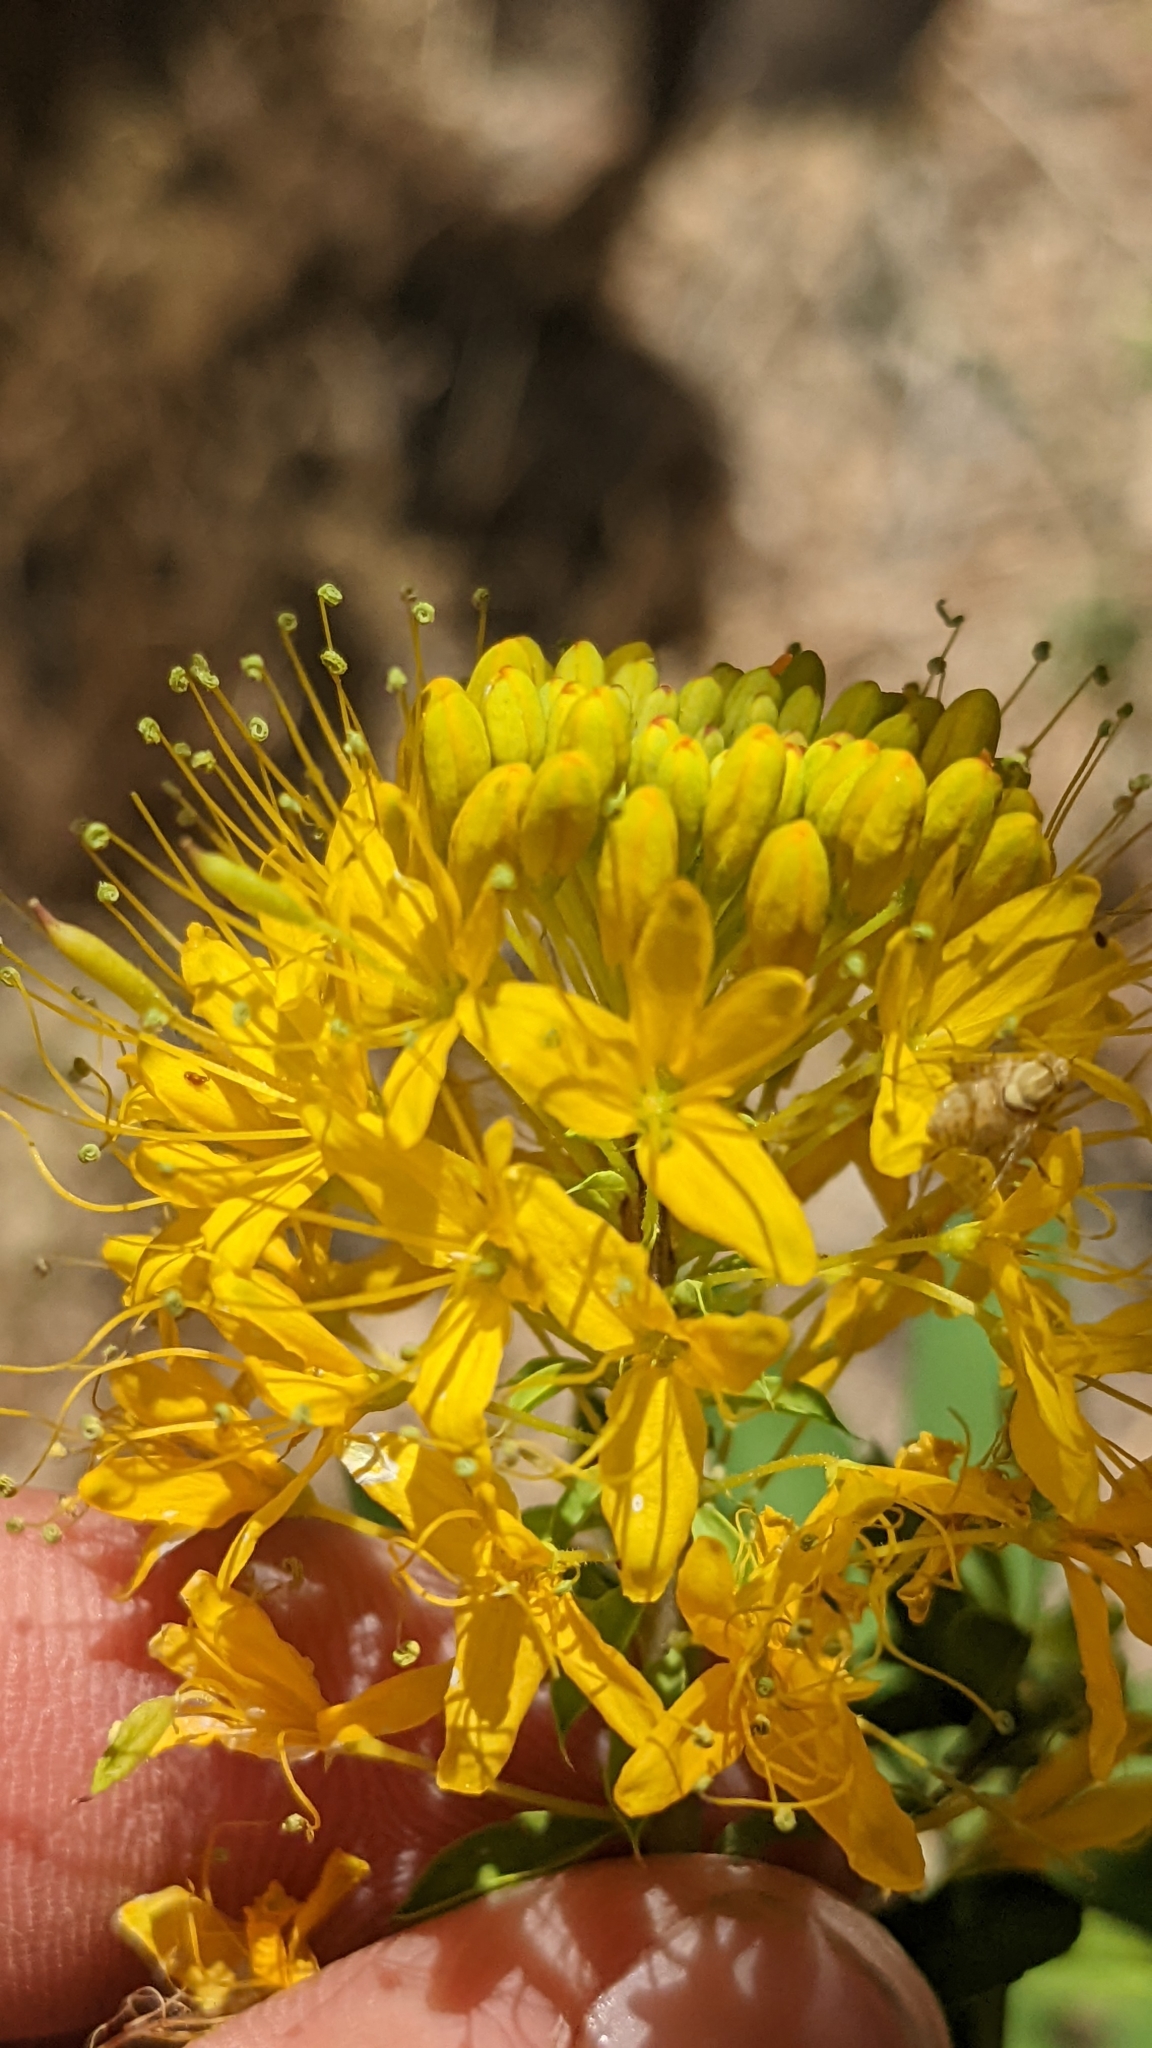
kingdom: Plantae
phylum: Tracheophyta
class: Magnoliopsida
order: Brassicales
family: Cleomaceae
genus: Cleomella
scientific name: Cleomella lutea
